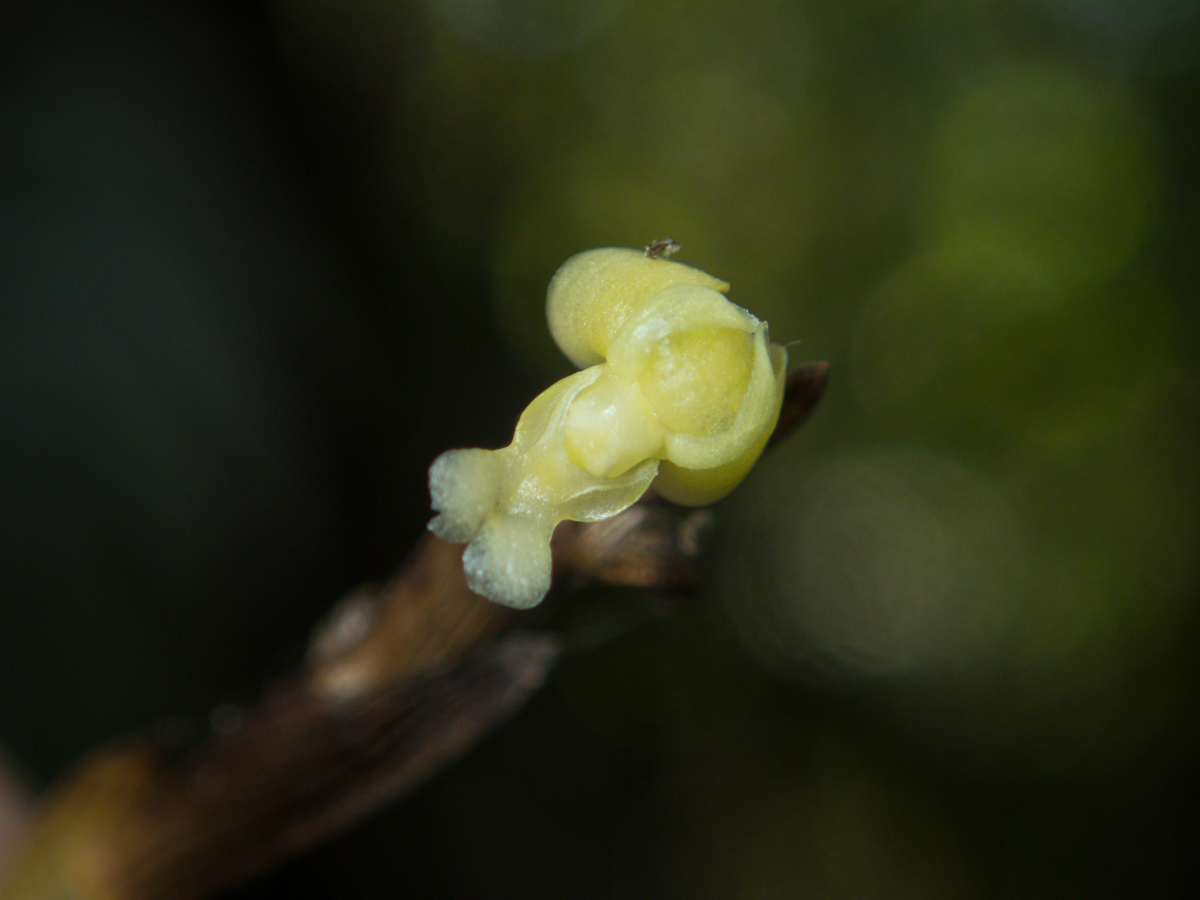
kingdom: Plantae
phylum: Tracheophyta
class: Liliopsida
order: Asparagales
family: Orchidaceae
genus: Dendrobium
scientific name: Dendrobium aloifolium
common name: Aloe-like dendrobium
